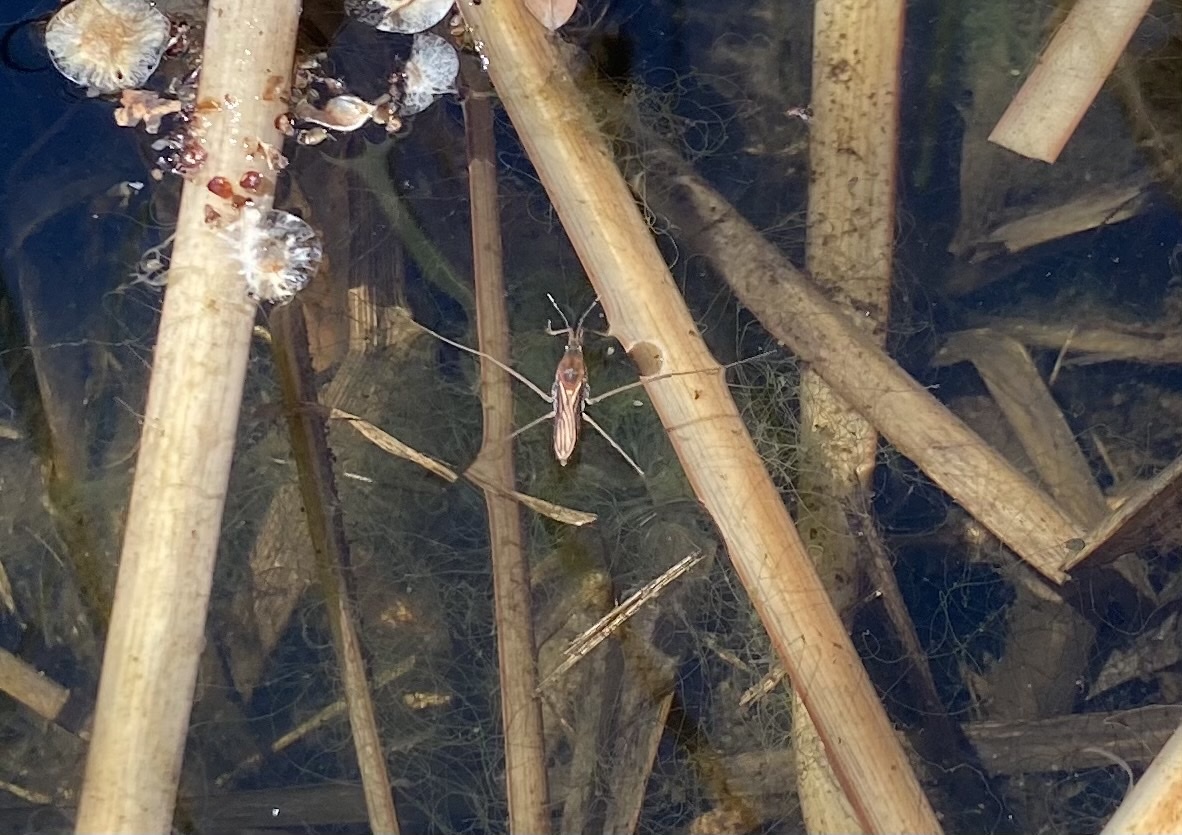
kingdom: Animalia
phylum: Arthropoda
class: Insecta
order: Hemiptera
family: Gerridae
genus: Aquarius
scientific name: Aquarius remigis
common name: Common water strider
